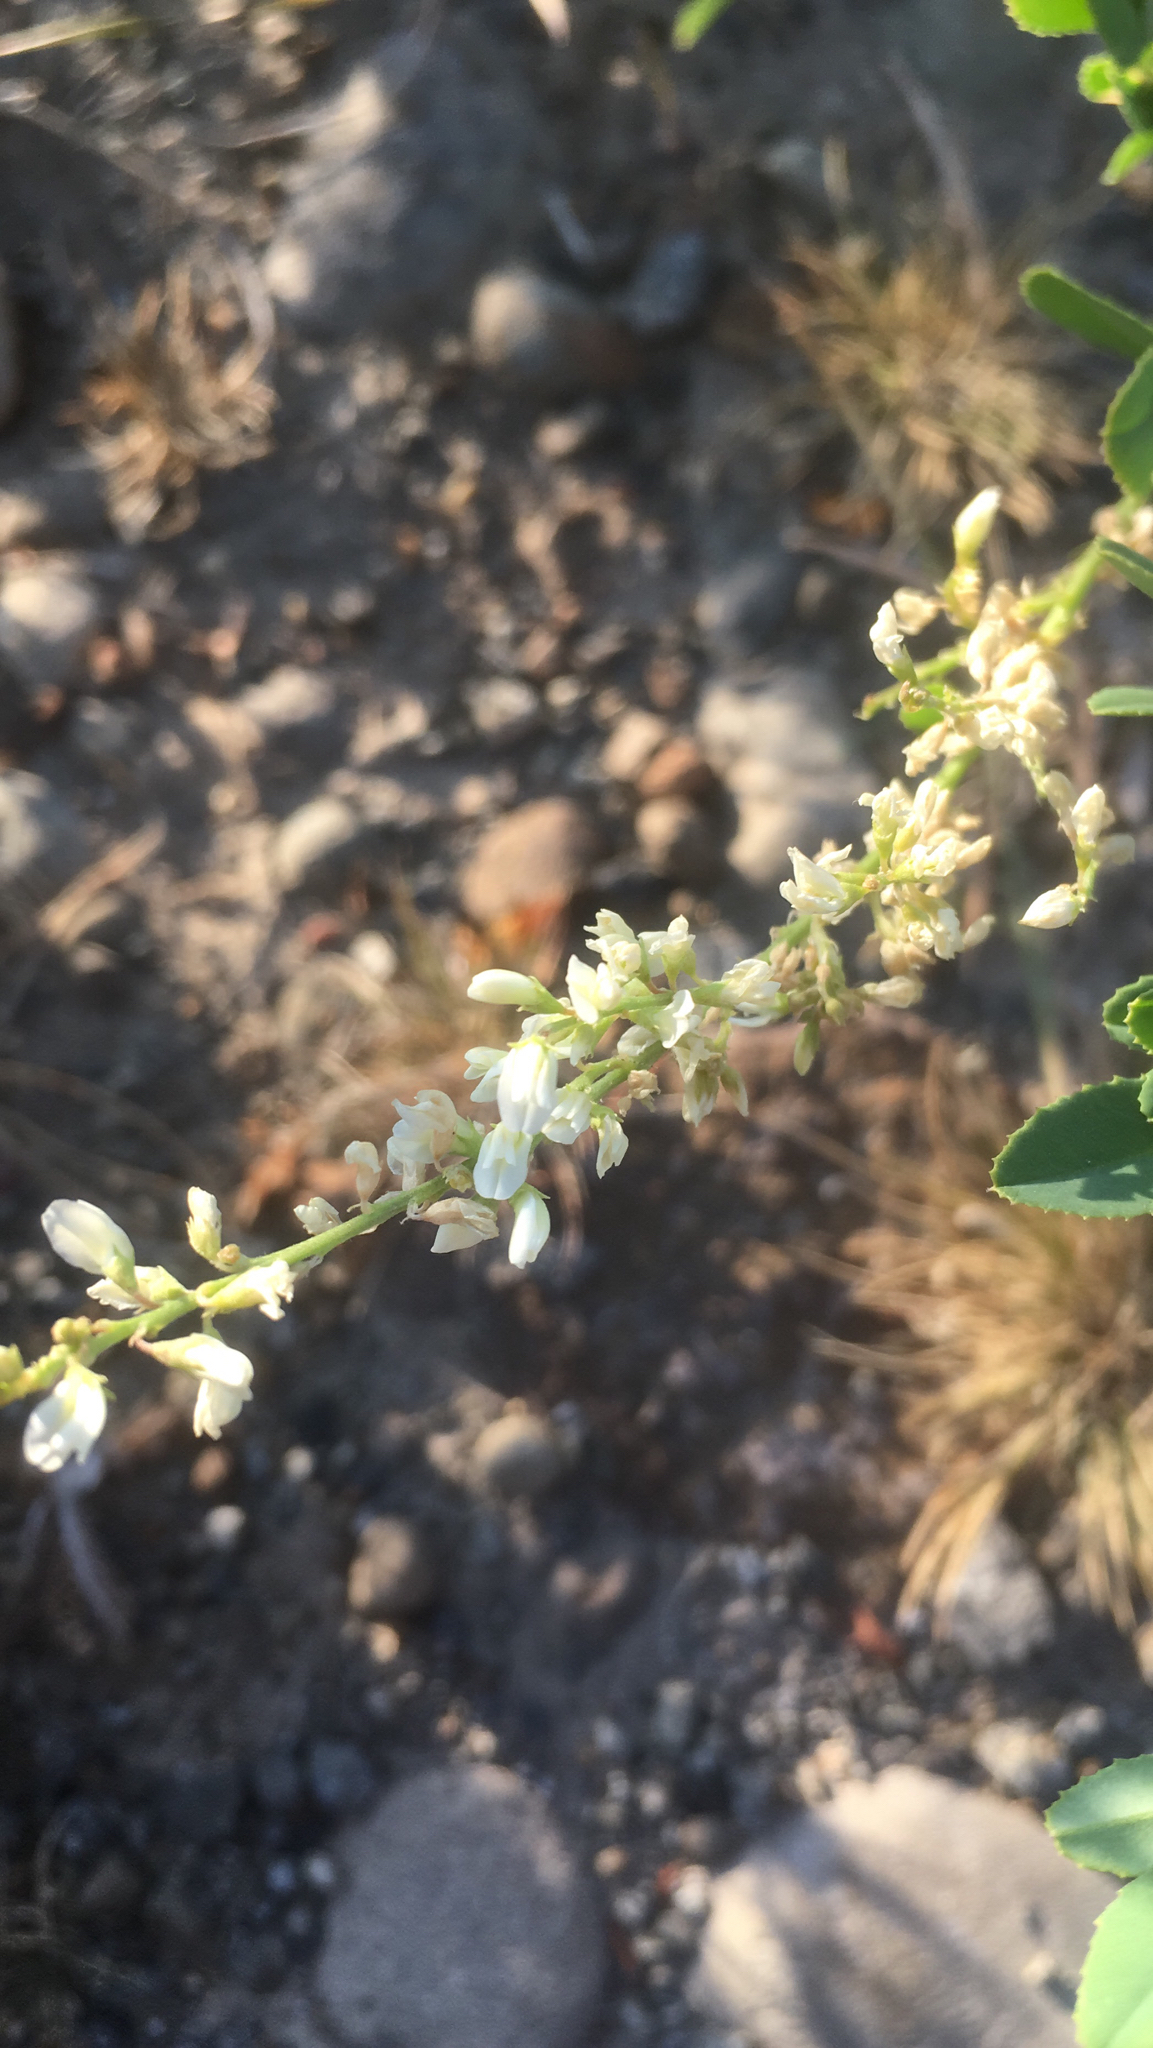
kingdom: Plantae
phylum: Tracheophyta
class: Magnoliopsida
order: Fabales
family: Fabaceae
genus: Melilotus
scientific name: Melilotus albus
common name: White melilot
